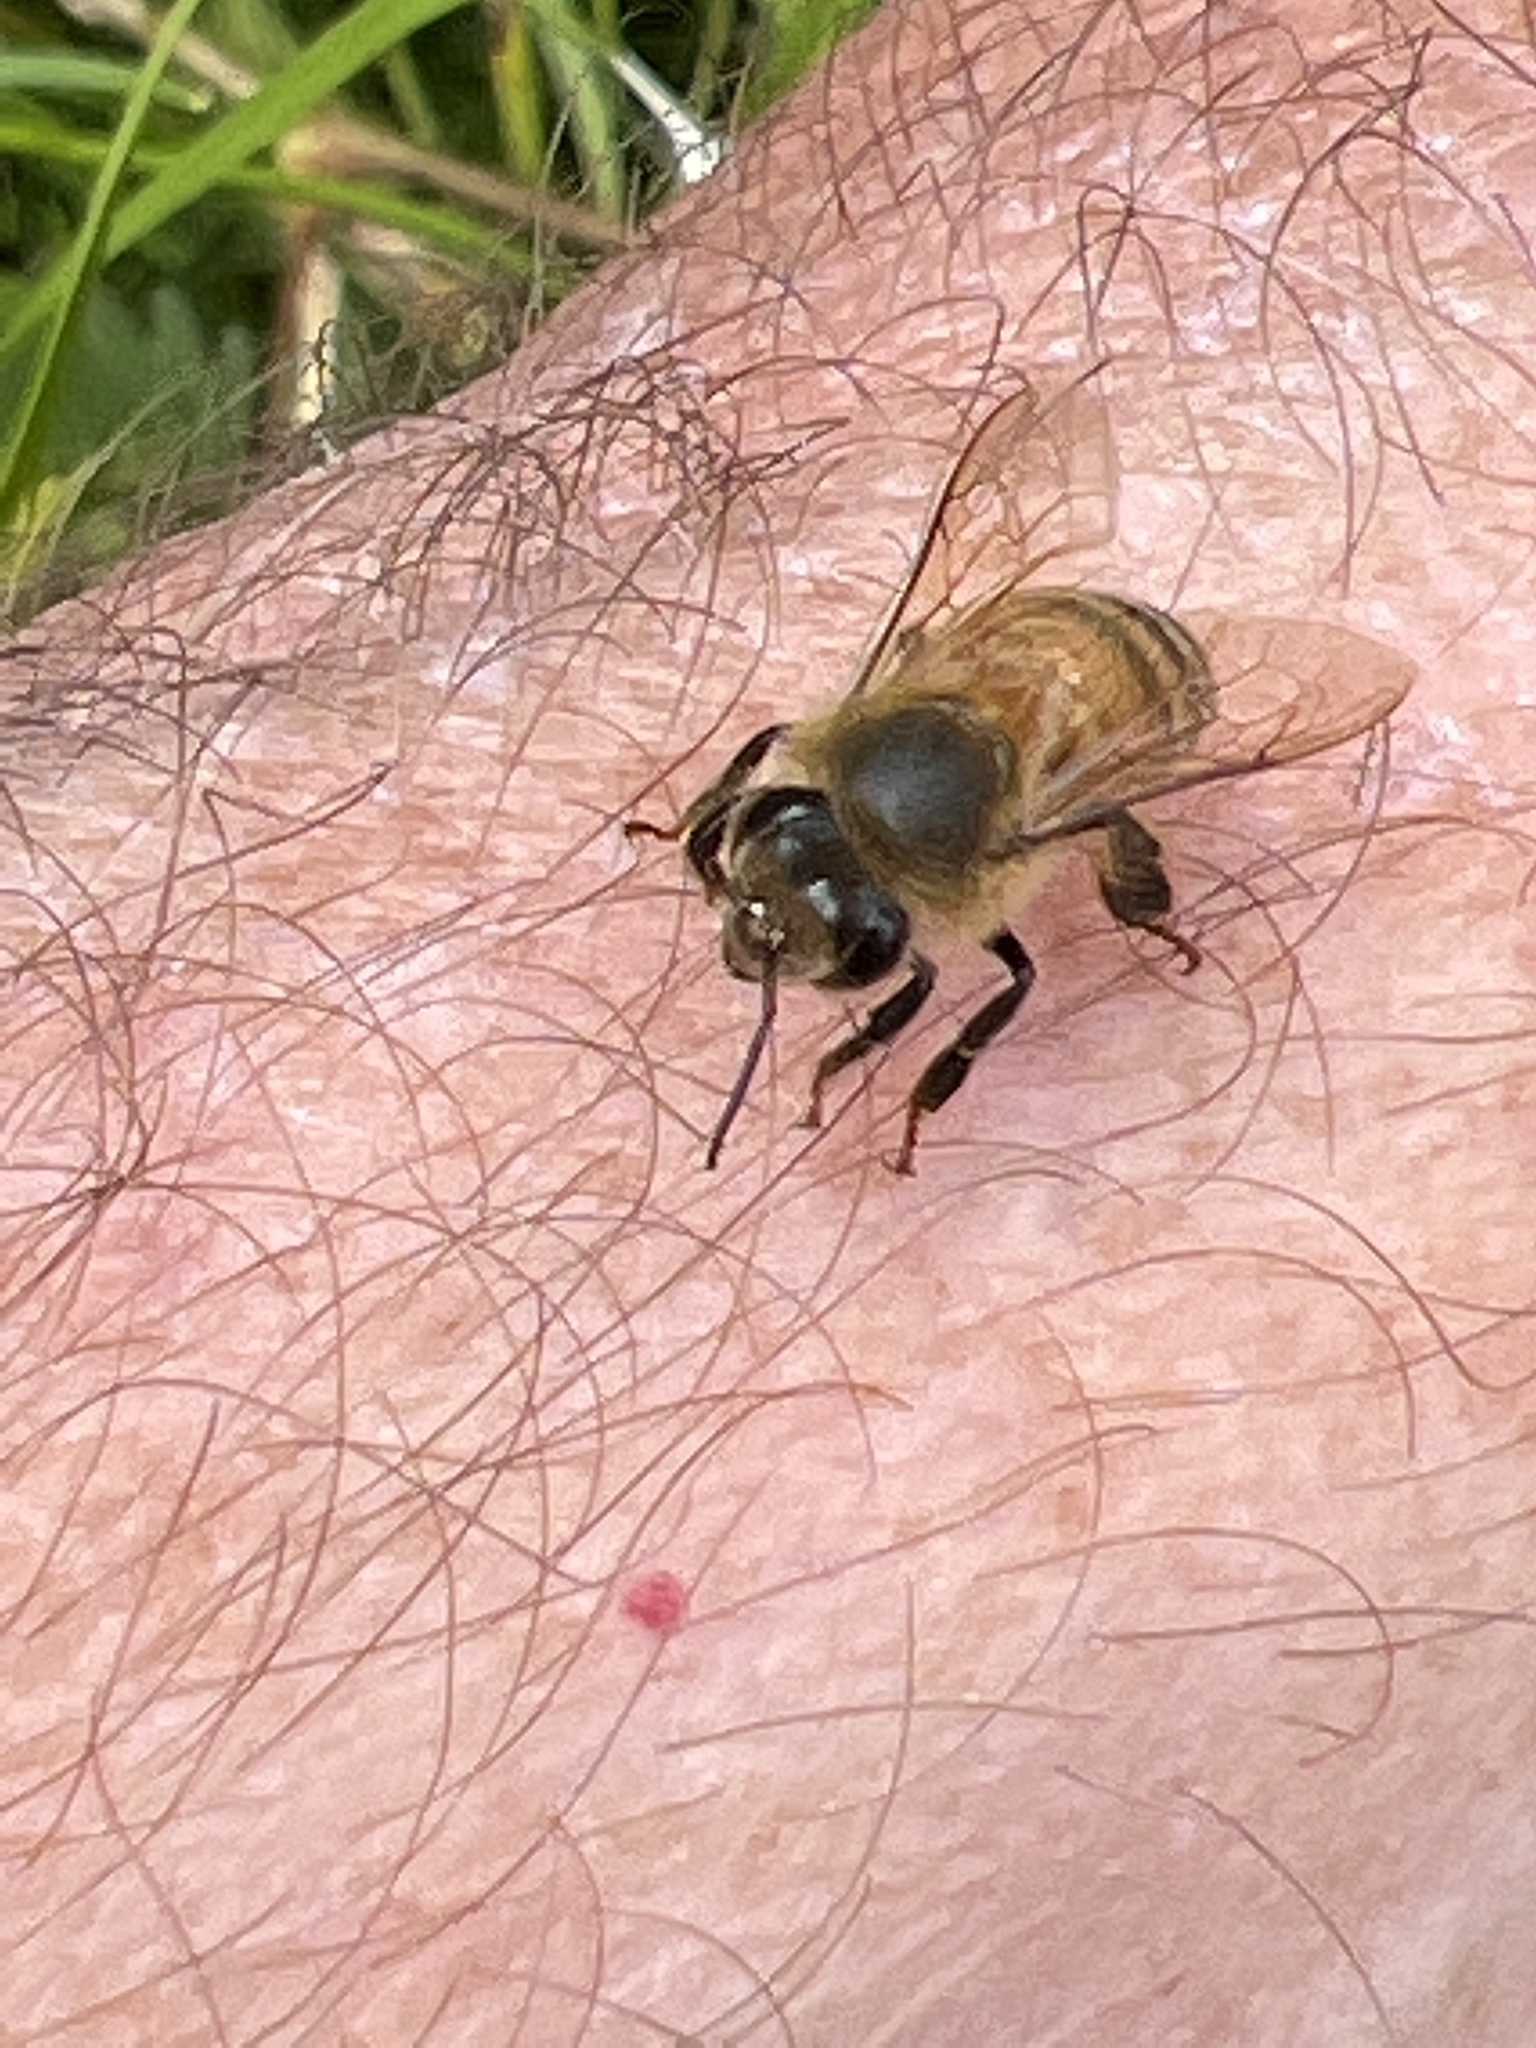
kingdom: Animalia
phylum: Arthropoda
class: Insecta
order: Hymenoptera
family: Apidae
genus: Apis
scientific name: Apis mellifera
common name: Honey bee
